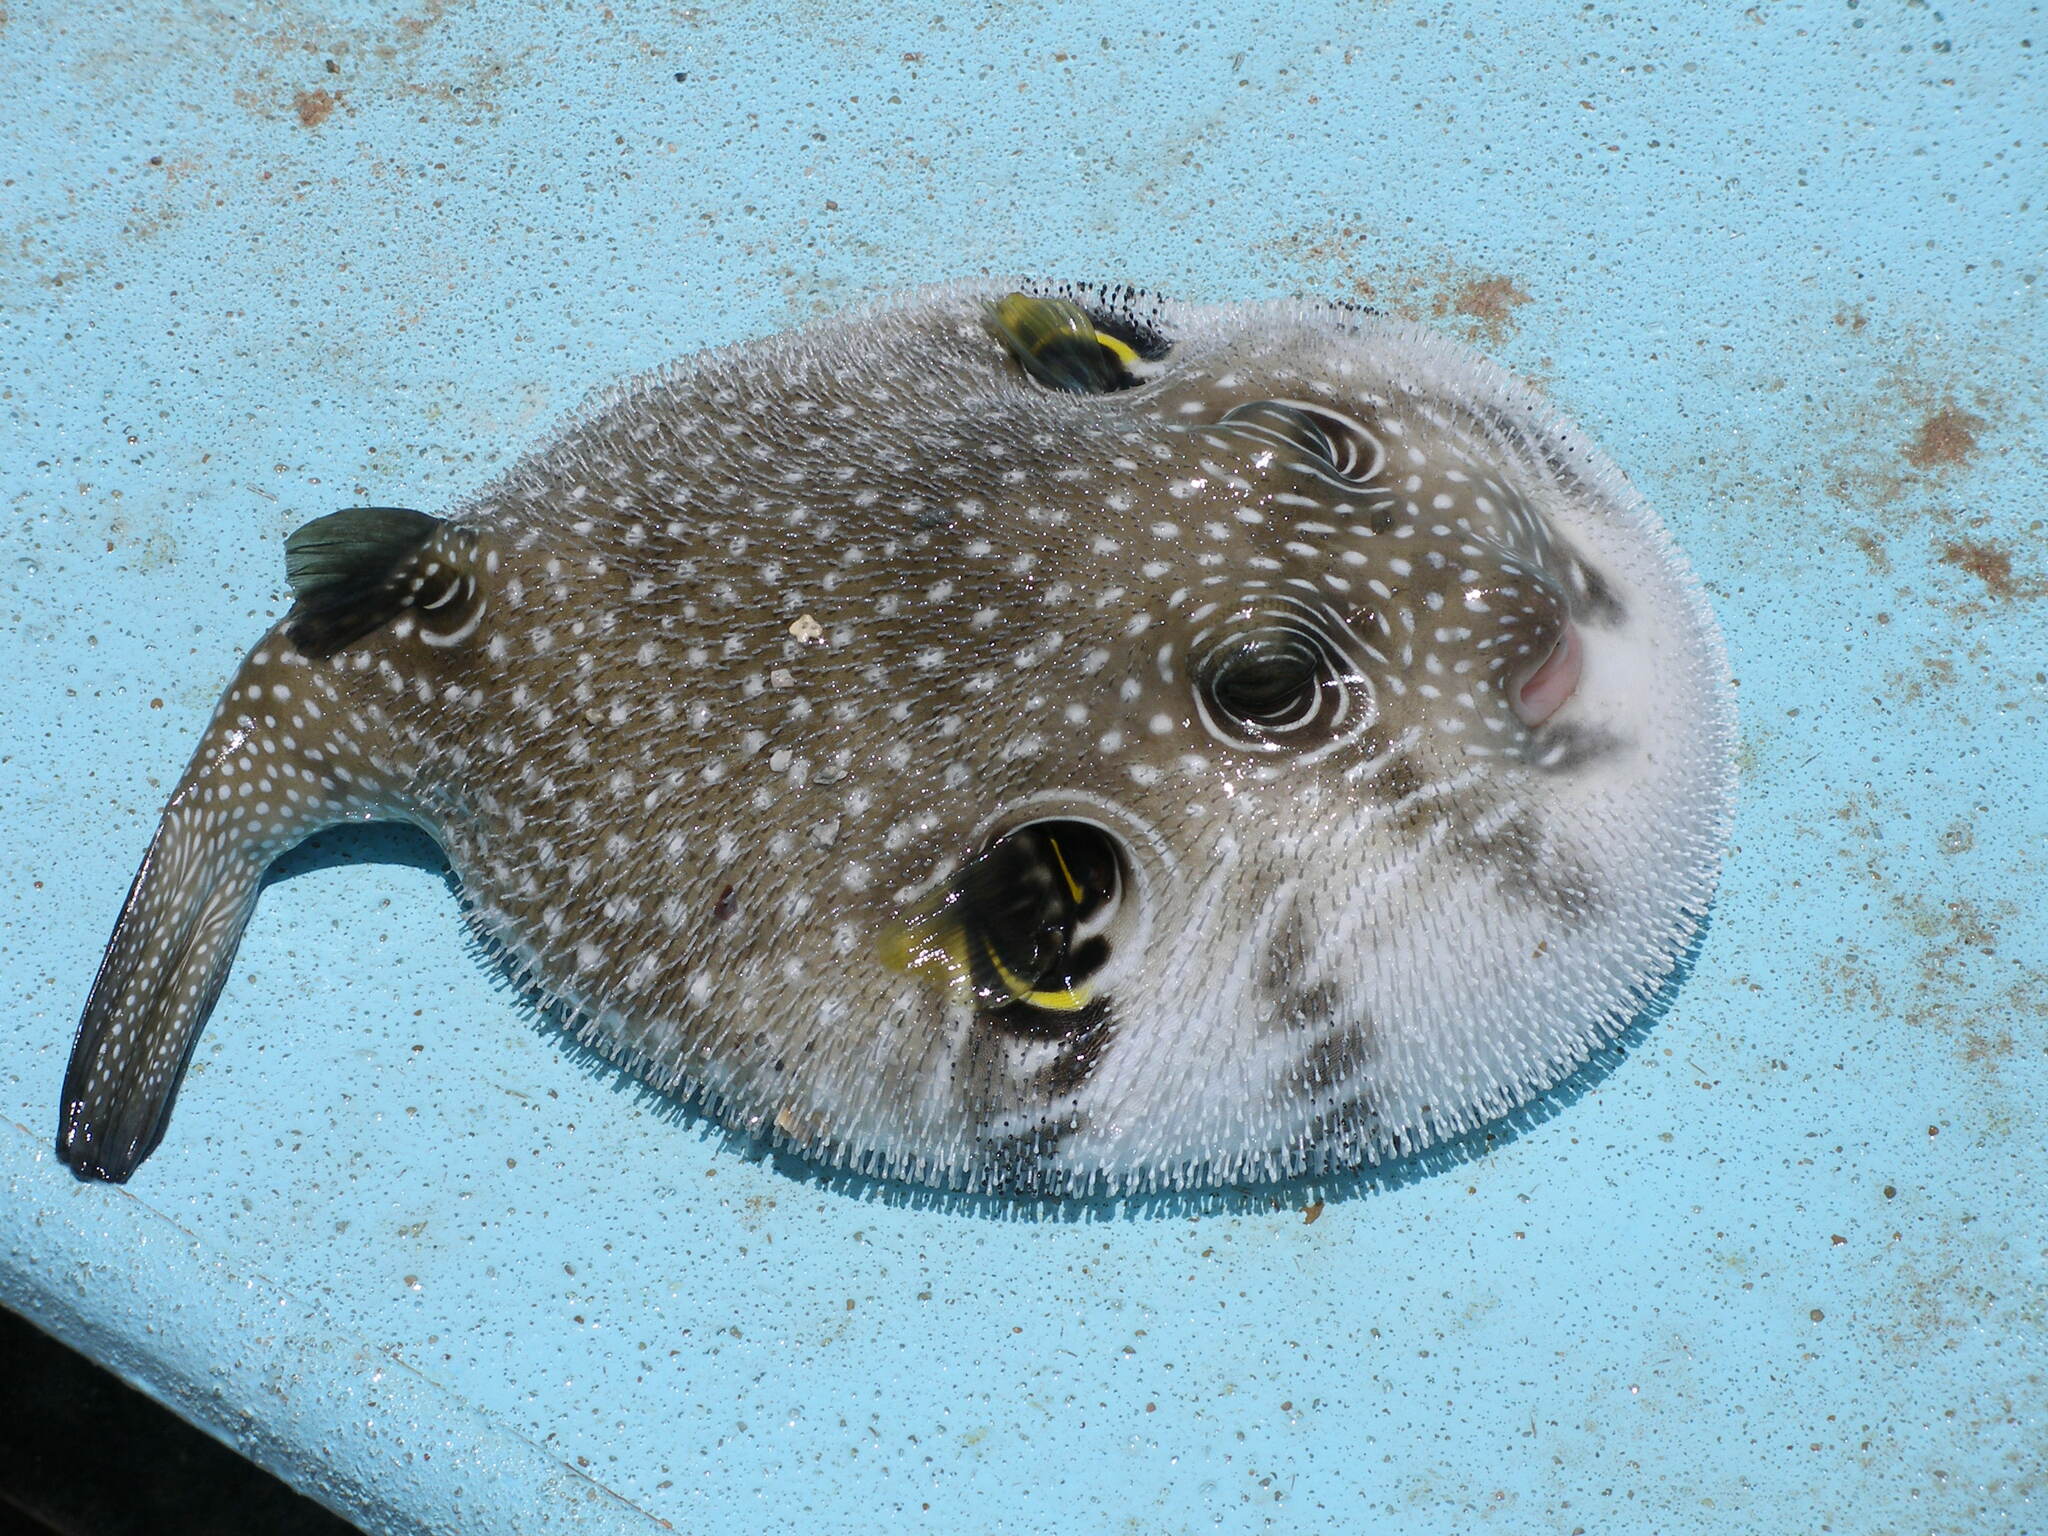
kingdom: Animalia
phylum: Chordata
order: Tetraodontiformes
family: Tetraodontidae
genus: Arothron
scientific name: Arothron hispidus
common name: Stripebelly puffer
